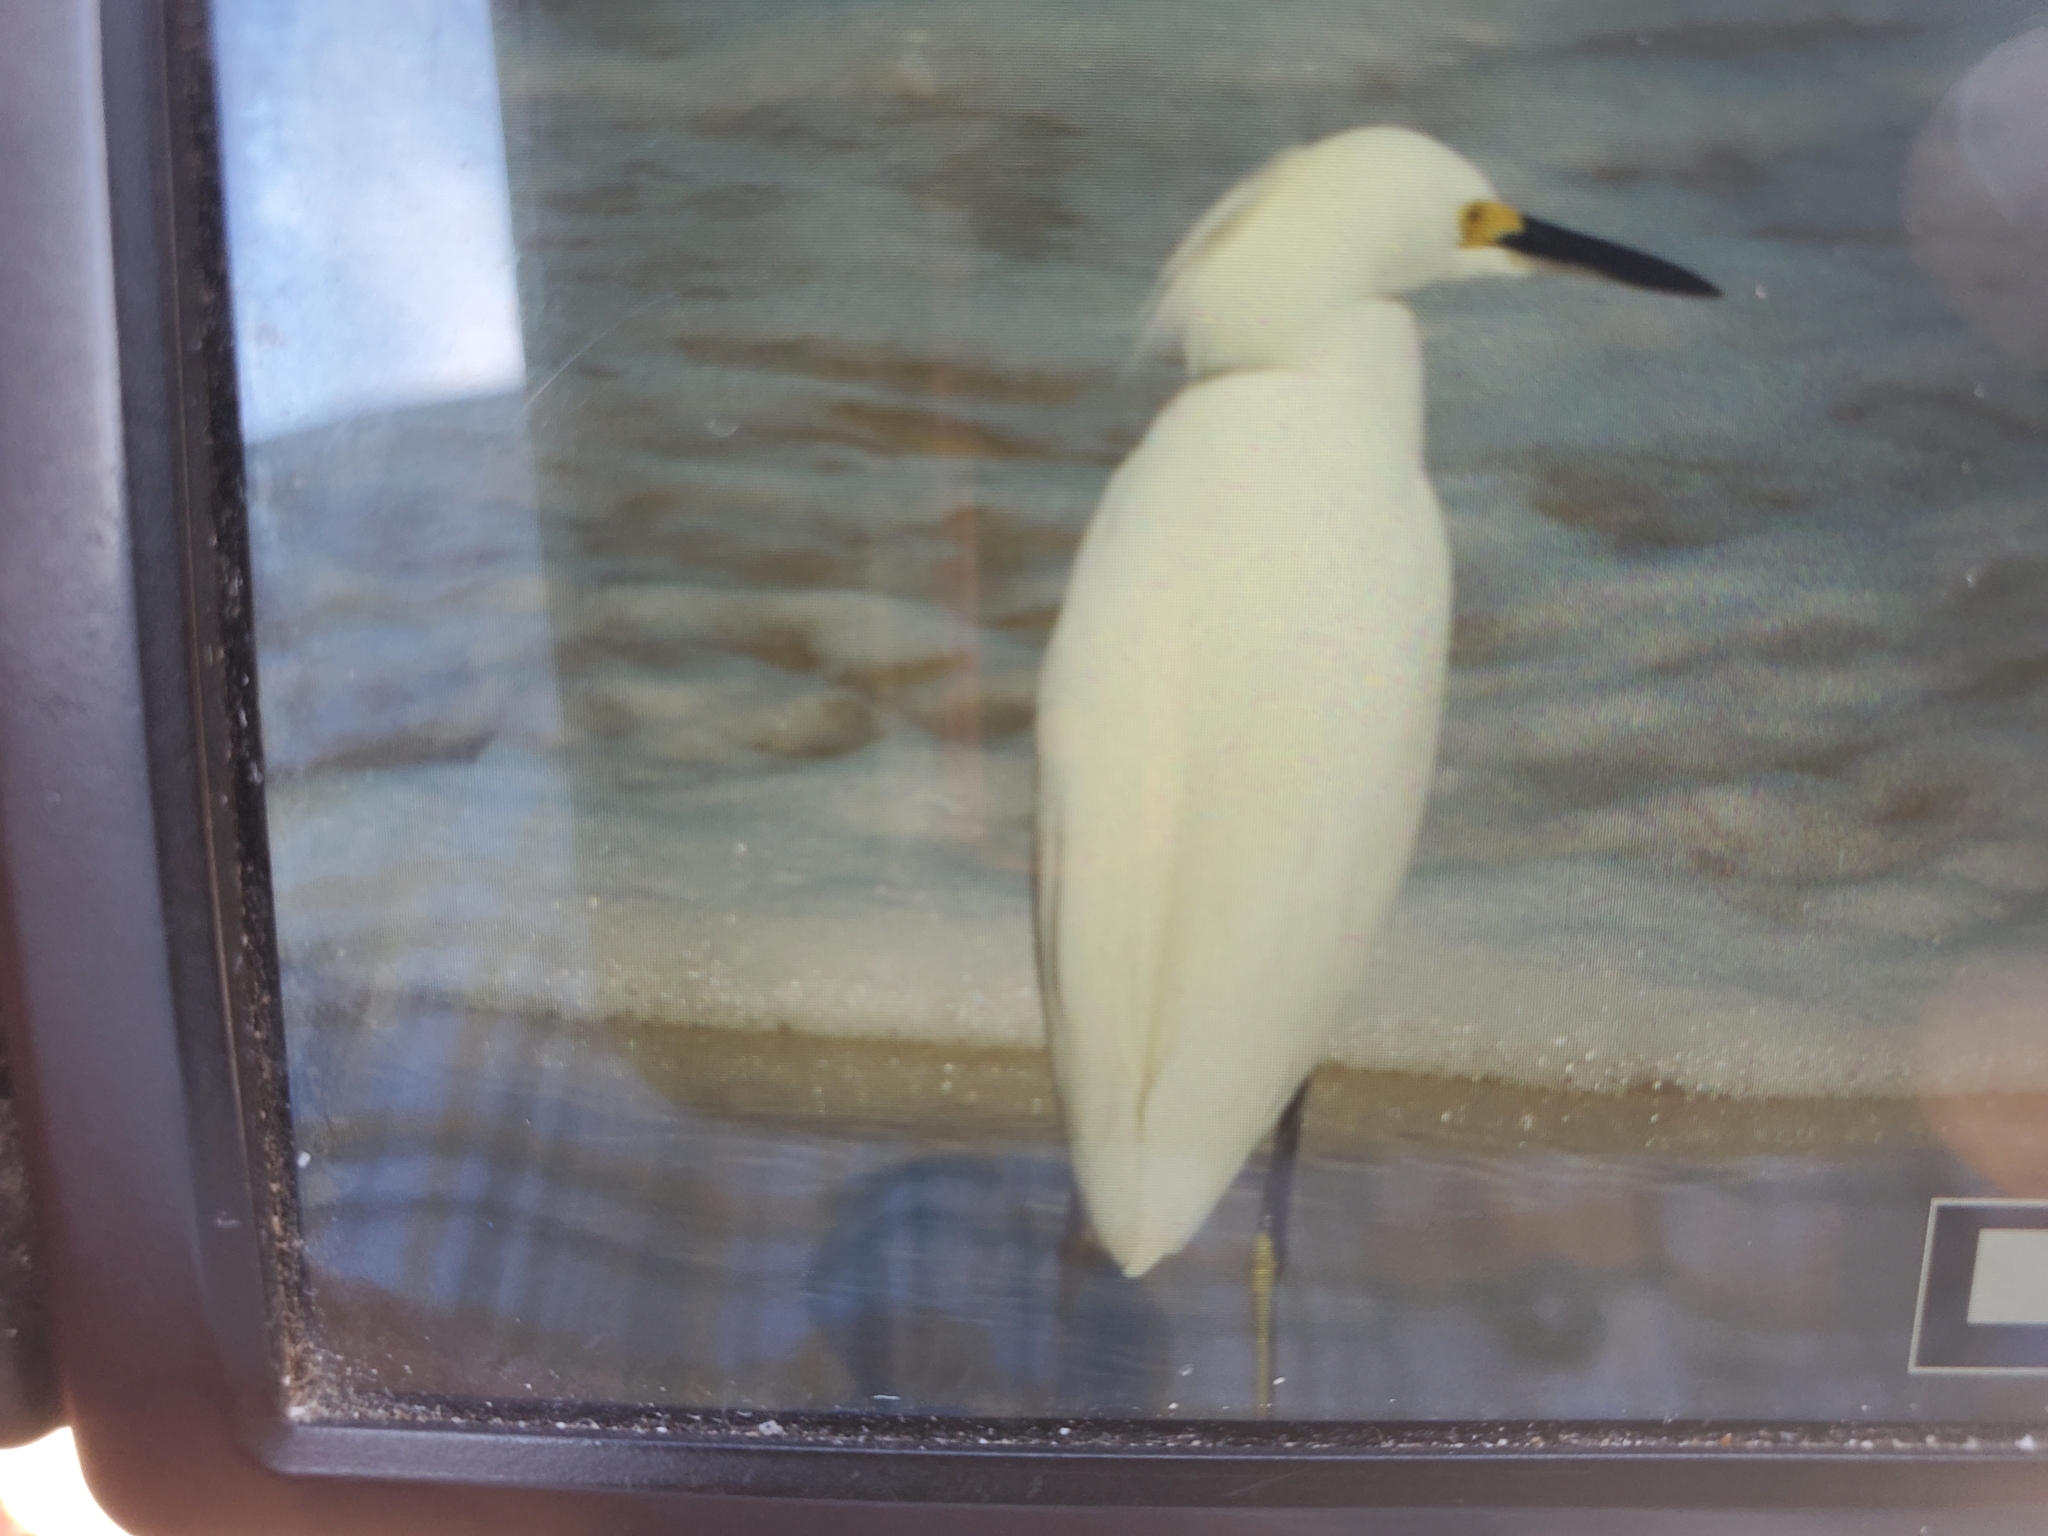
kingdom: Animalia
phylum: Chordata
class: Aves
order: Pelecaniformes
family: Ardeidae
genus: Egretta
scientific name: Egretta thula
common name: Snowy egret
